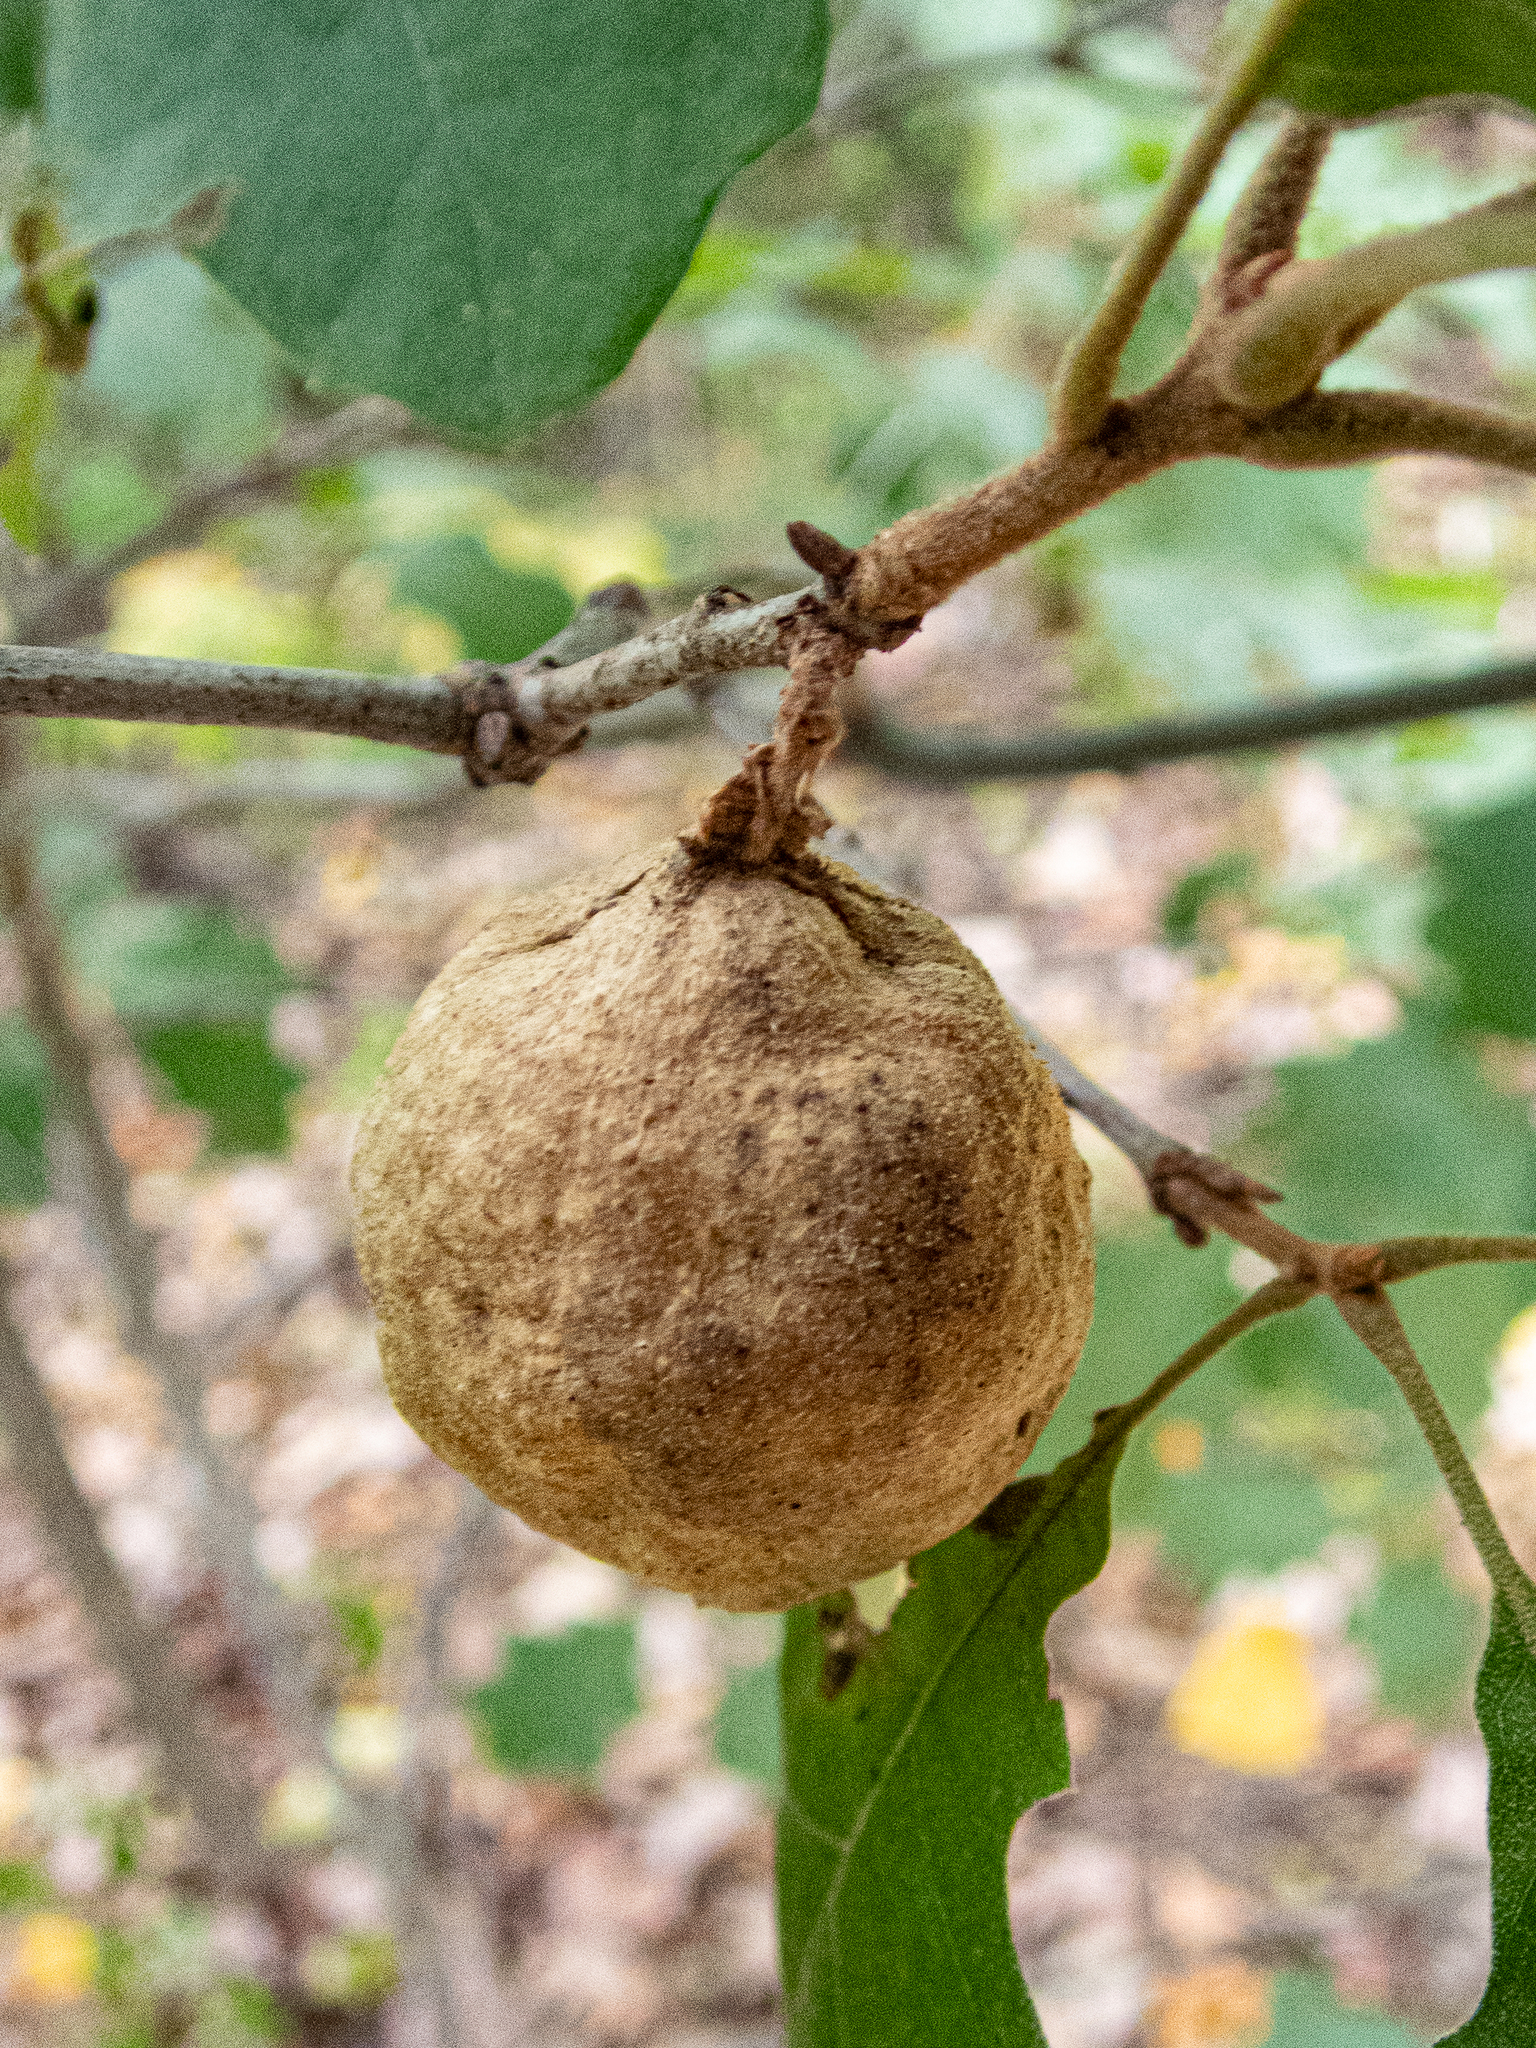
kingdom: Animalia
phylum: Arthropoda
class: Insecta
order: Hymenoptera
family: Cynipidae
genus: Amphibolips
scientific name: Amphibolips
